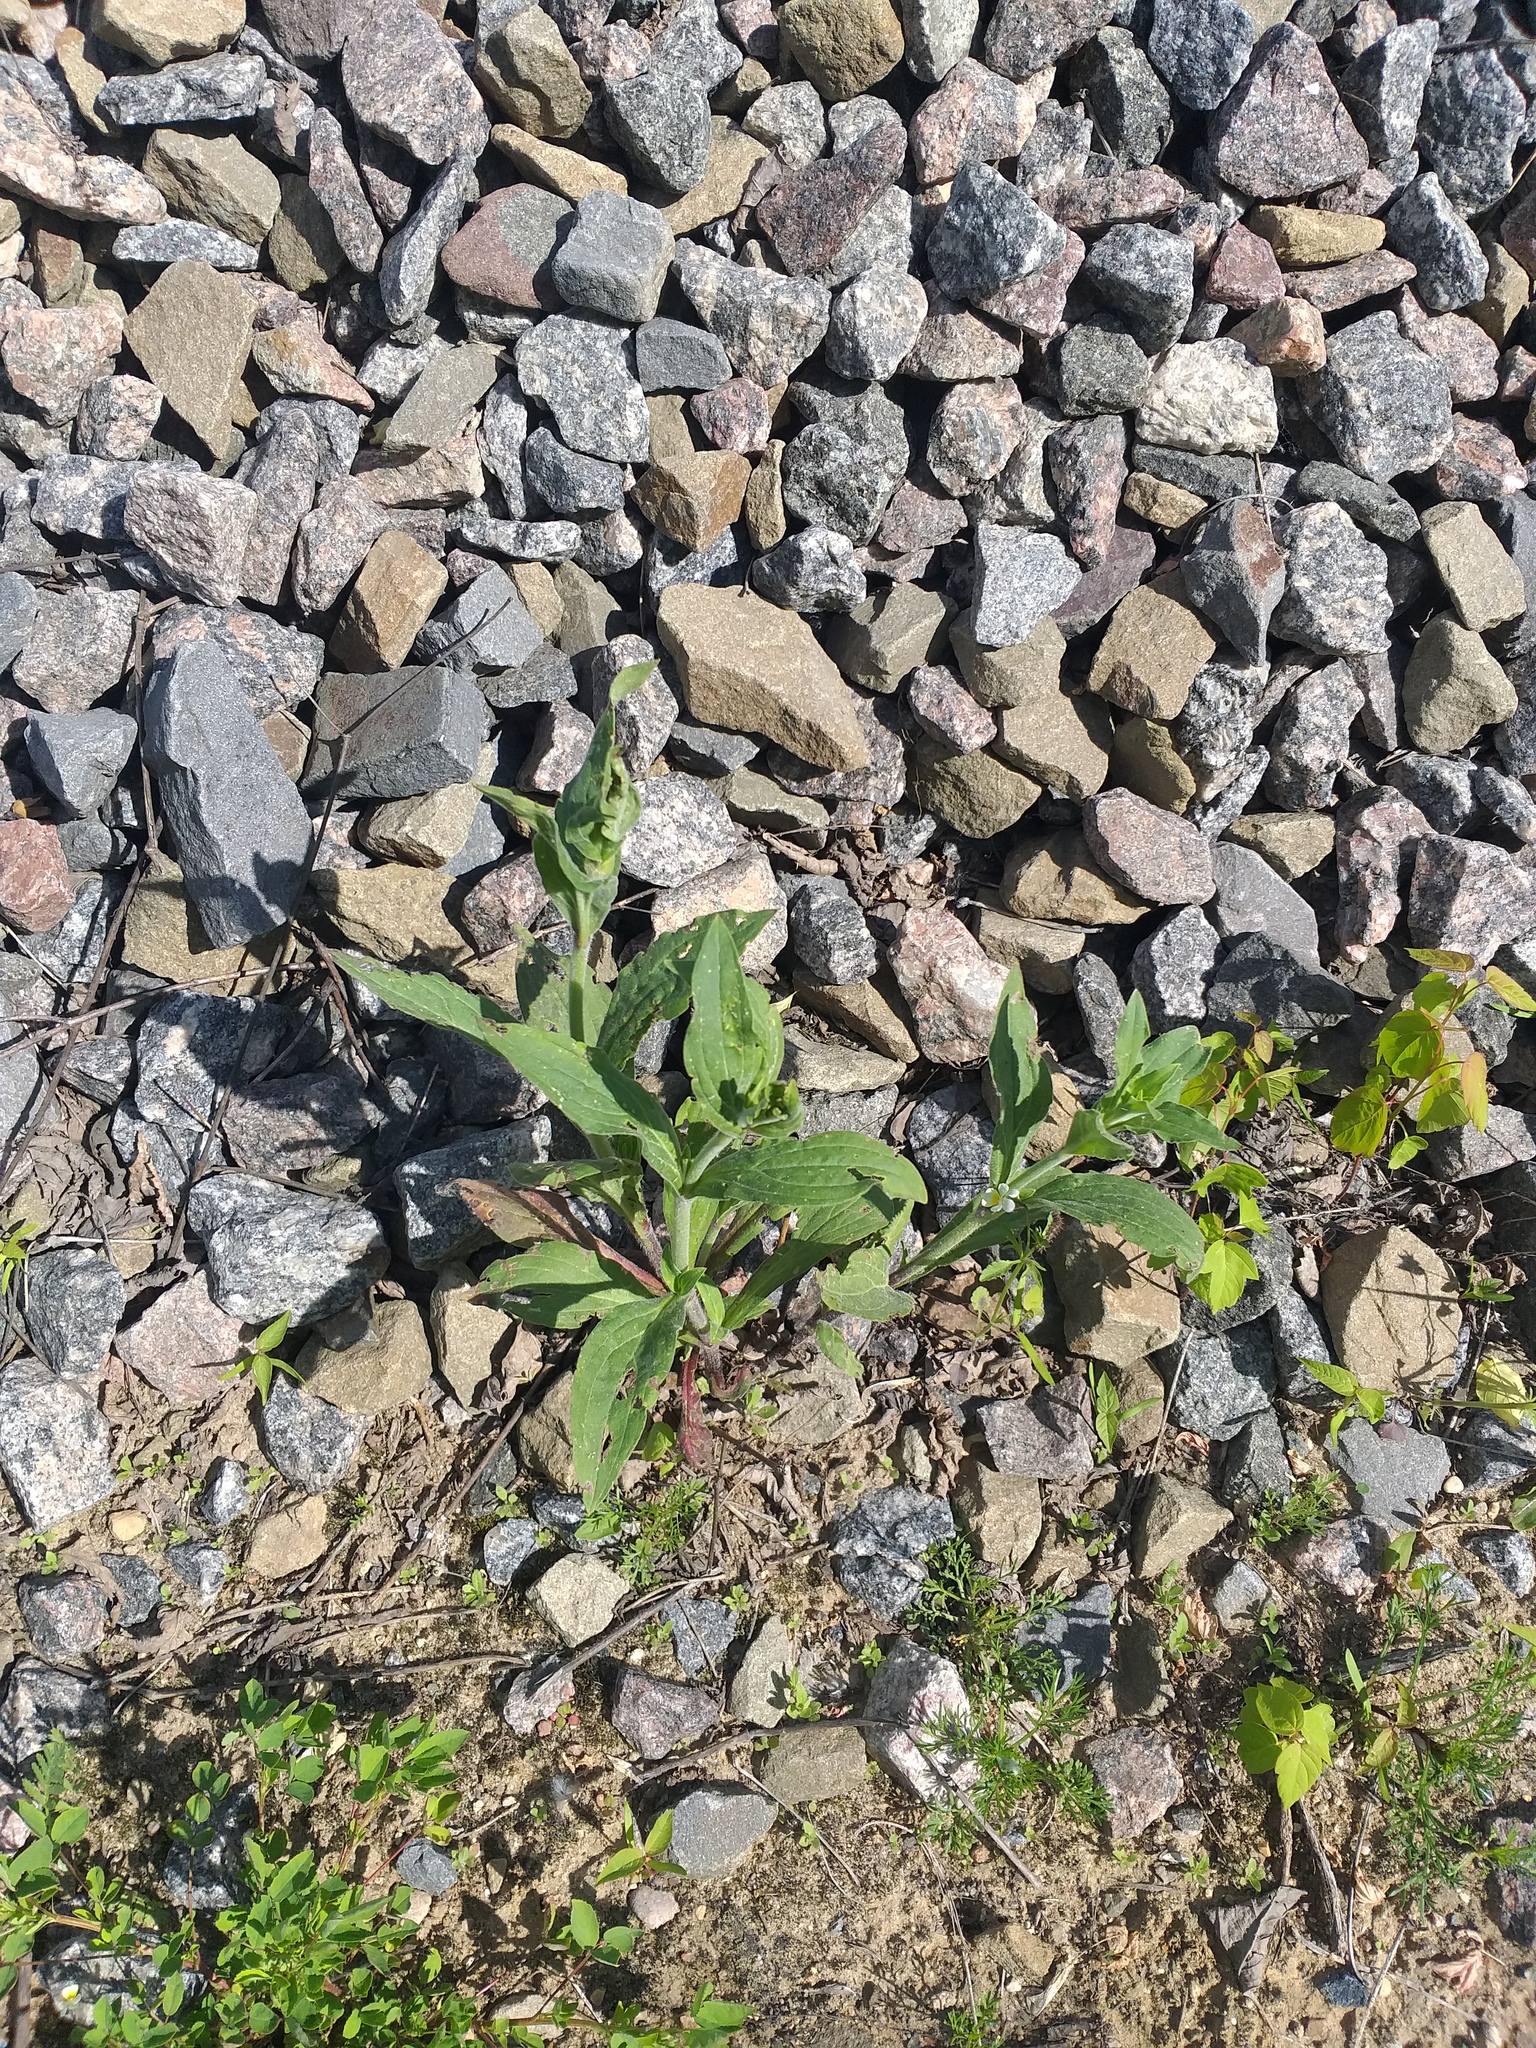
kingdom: Plantae
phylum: Tracheophyta
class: Magnoliopsida
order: Caryophyllales
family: Caryophyllaceae
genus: Silene
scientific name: Silene latifolia
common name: White campion
